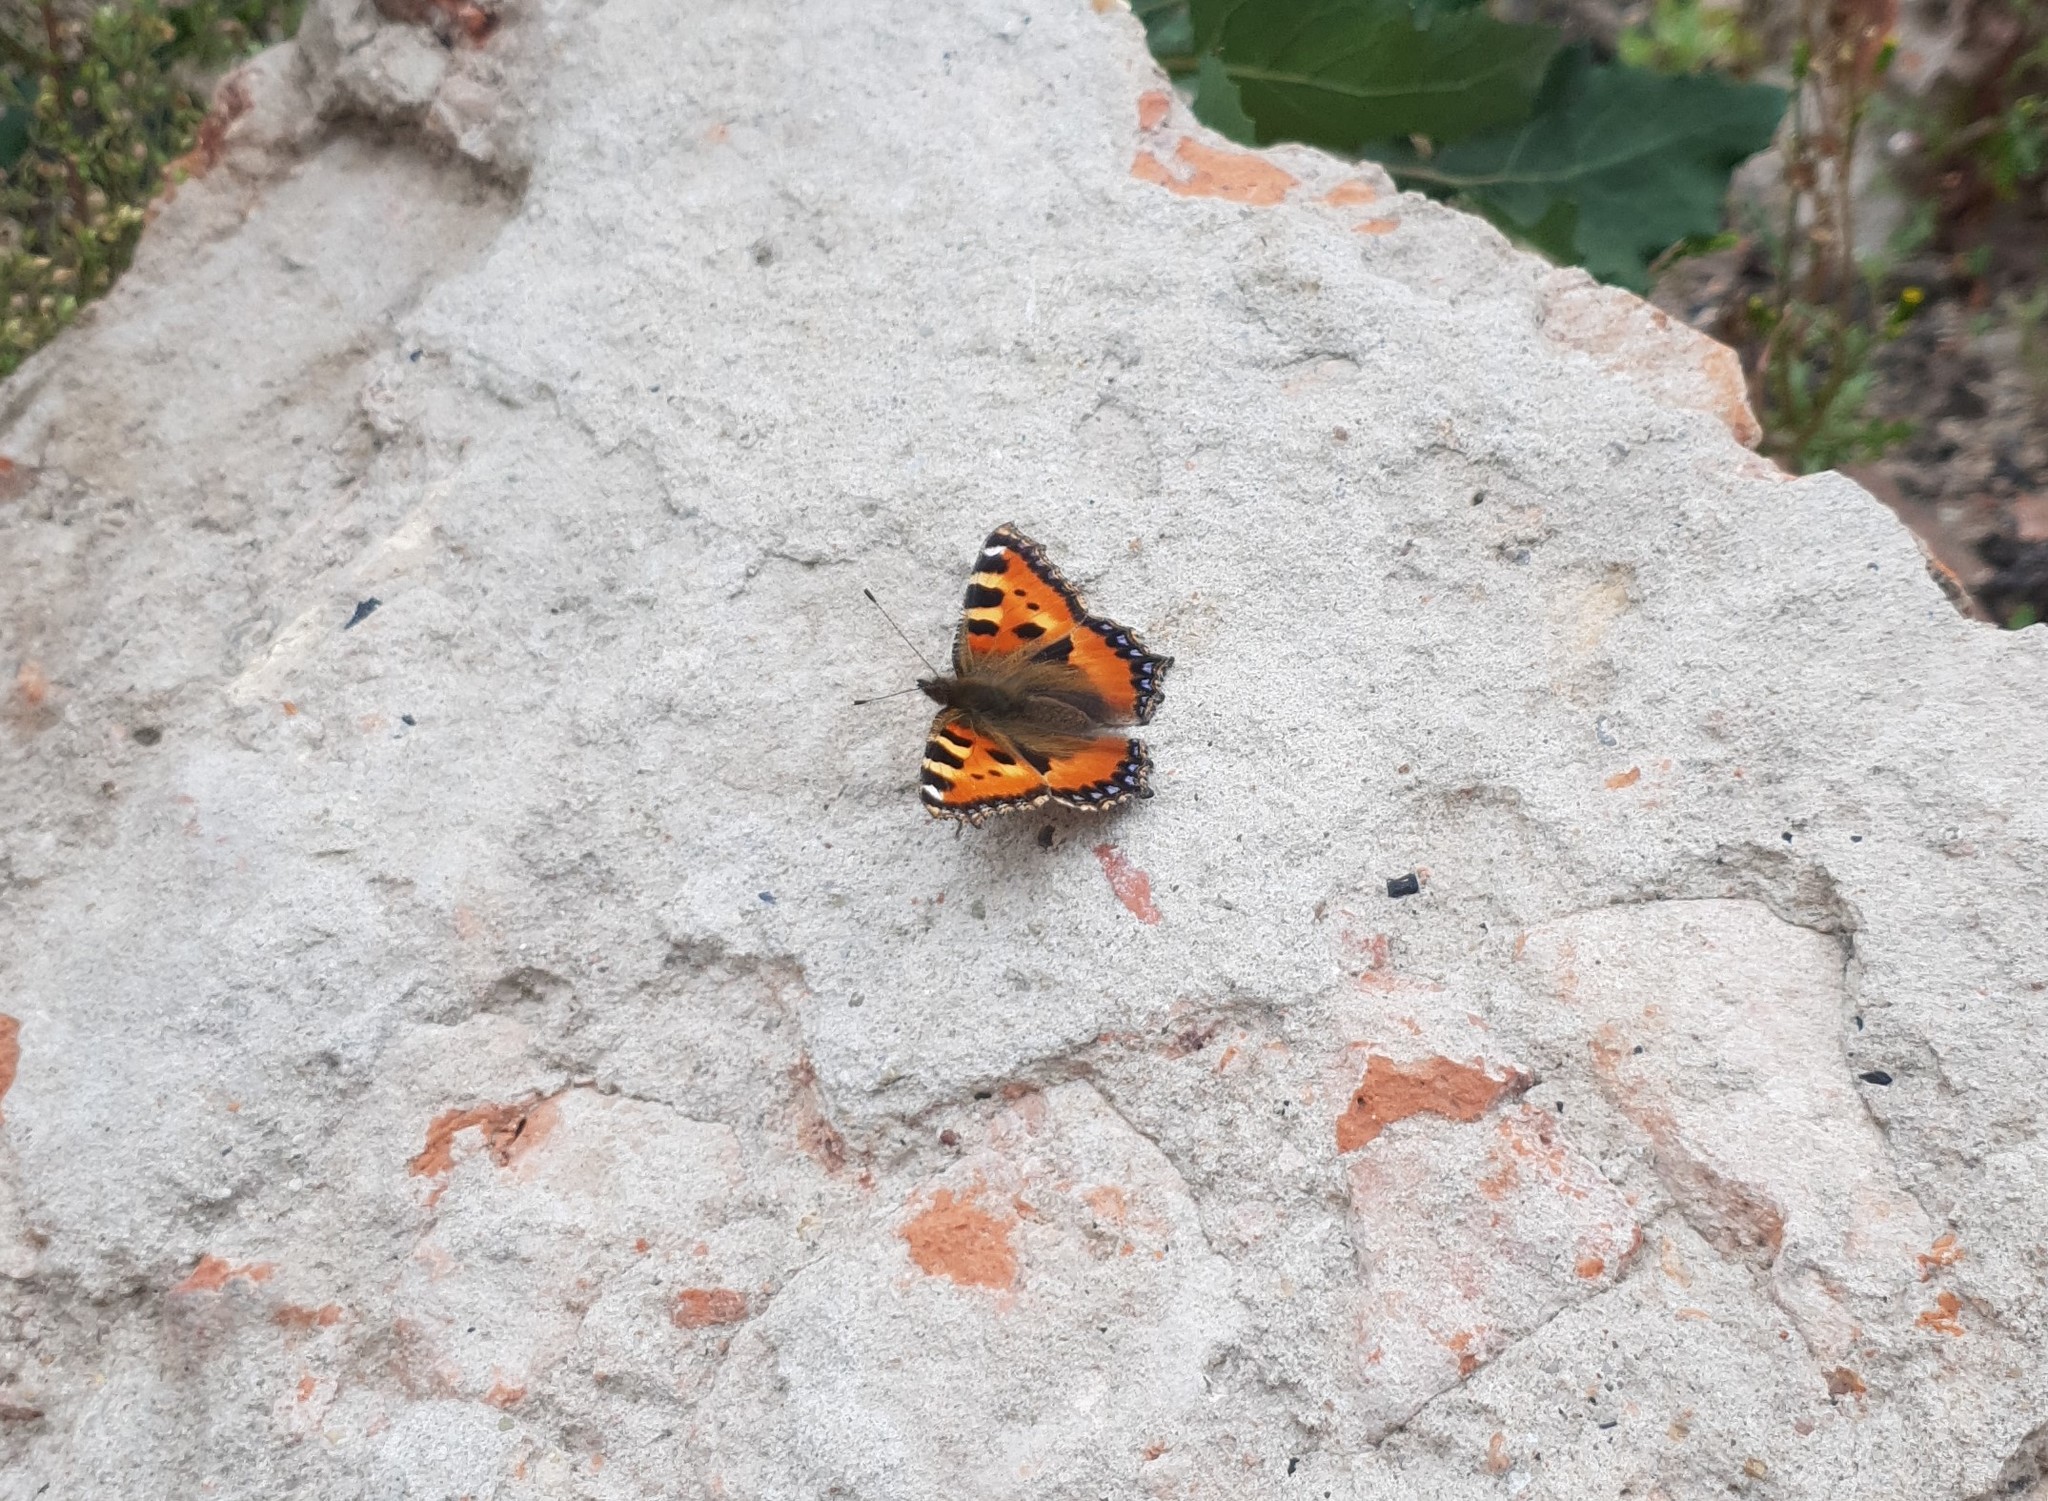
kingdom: Animalia
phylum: Arthropoda
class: Insecta
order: Lepidoptera
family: Nymphalidae
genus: Aglais
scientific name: Aglais urticae
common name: Small tortoiseshell
